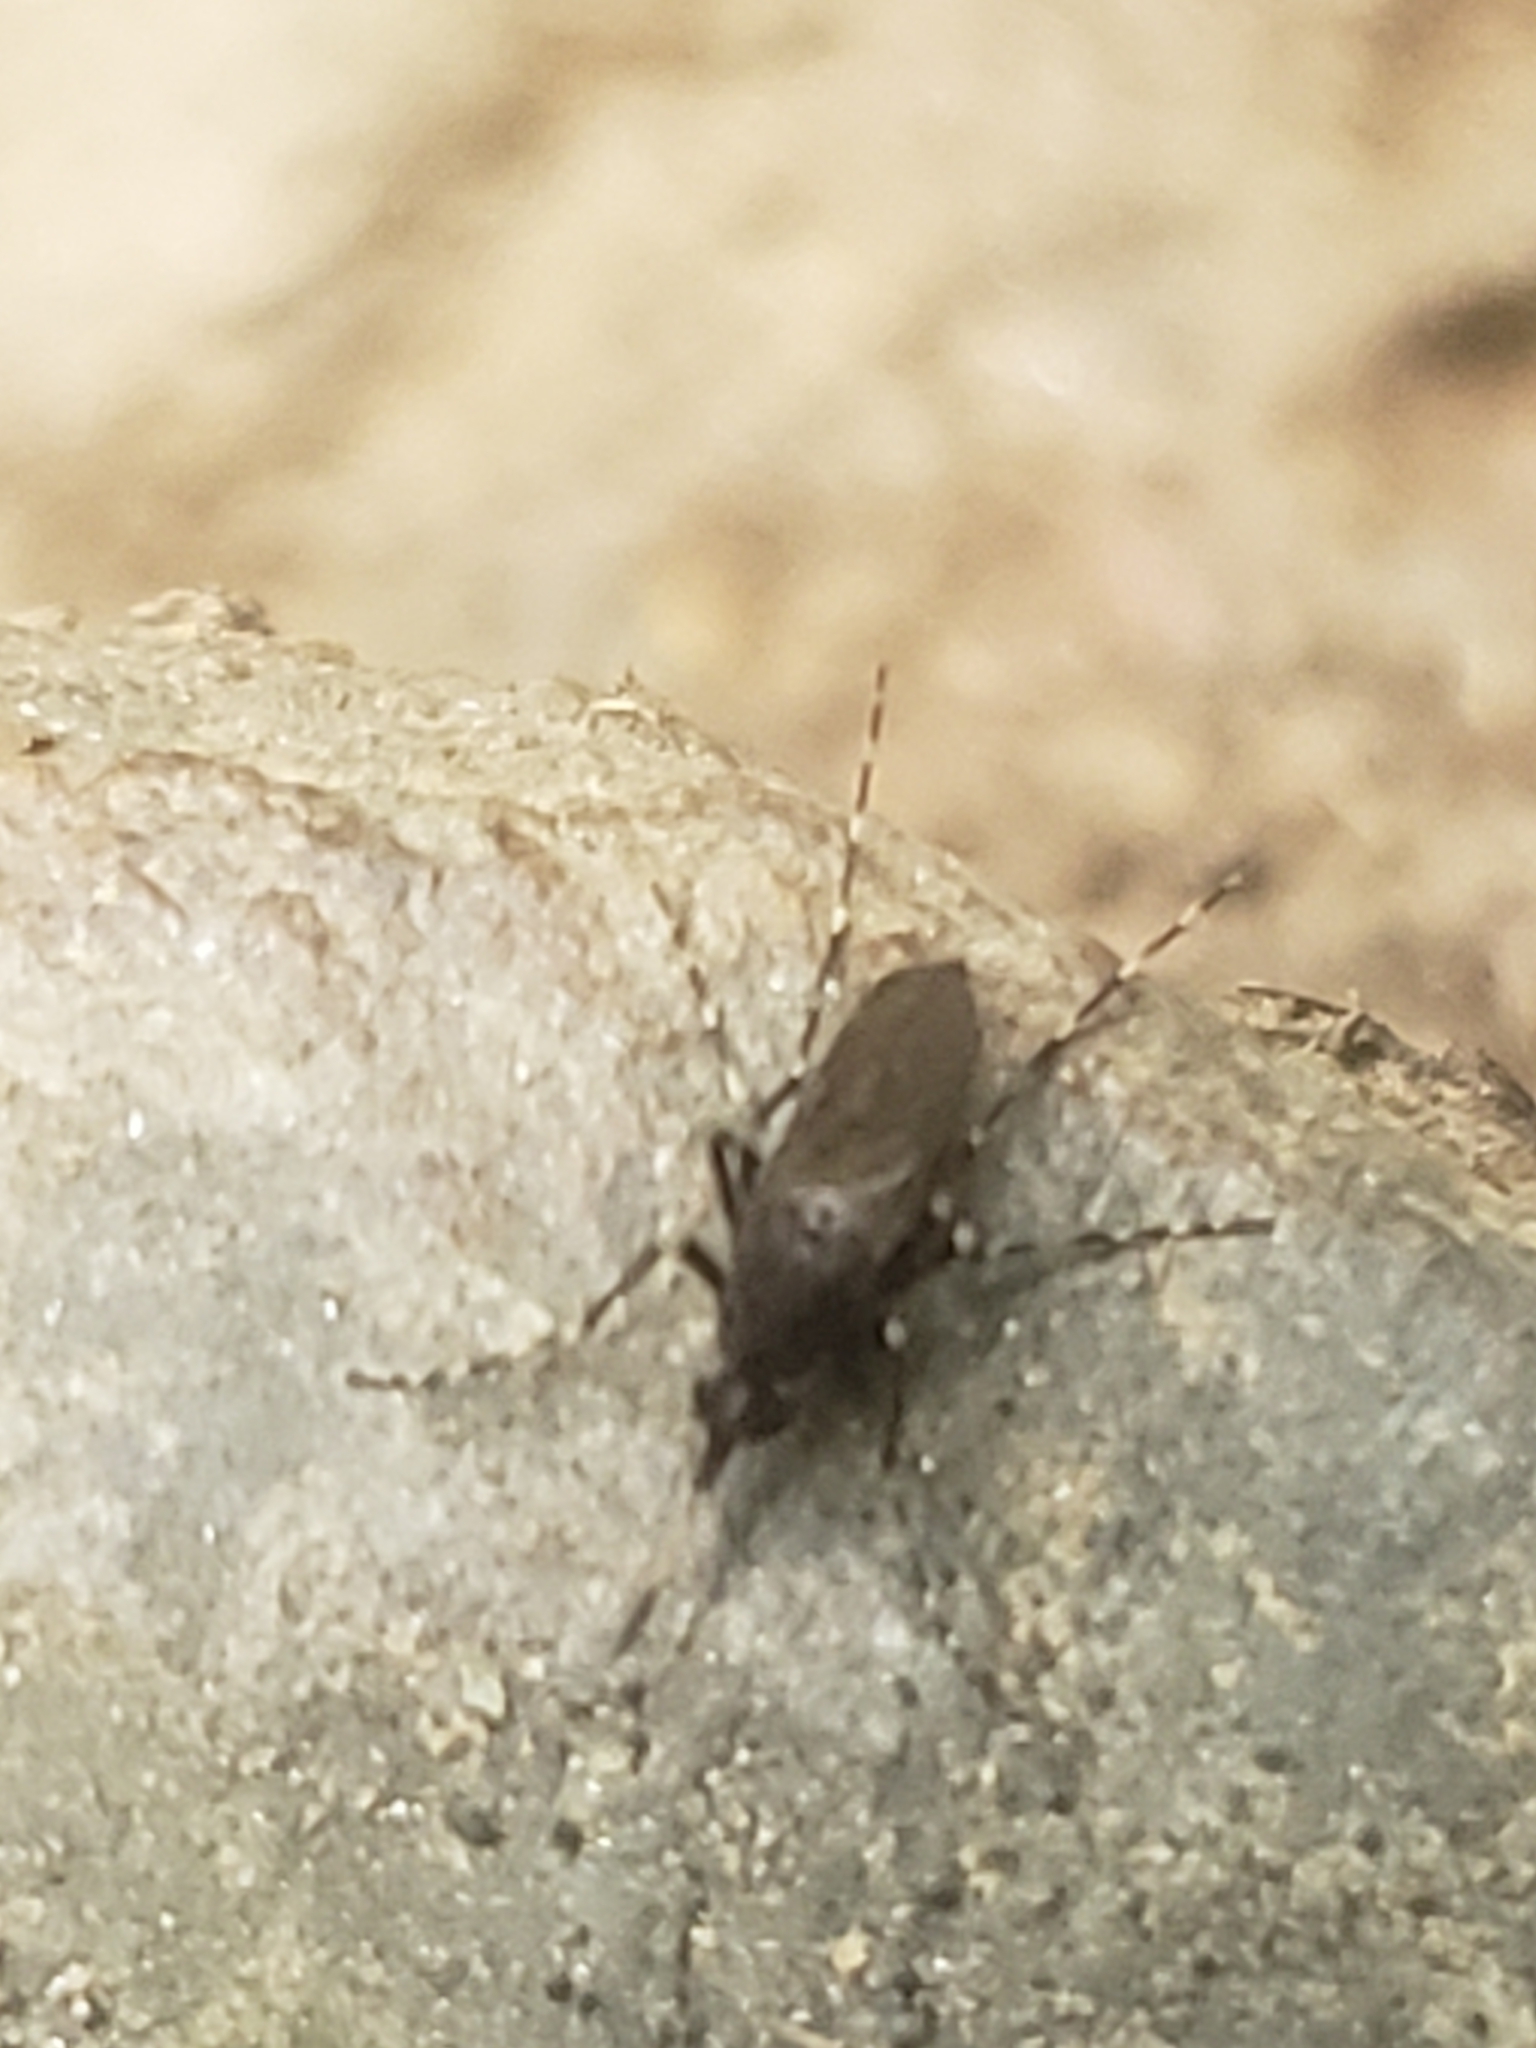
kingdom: Animalia
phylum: Arthropoda
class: Insecta
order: Diptera
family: Culicidae
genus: Psorophora
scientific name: Psorophora columbiae
